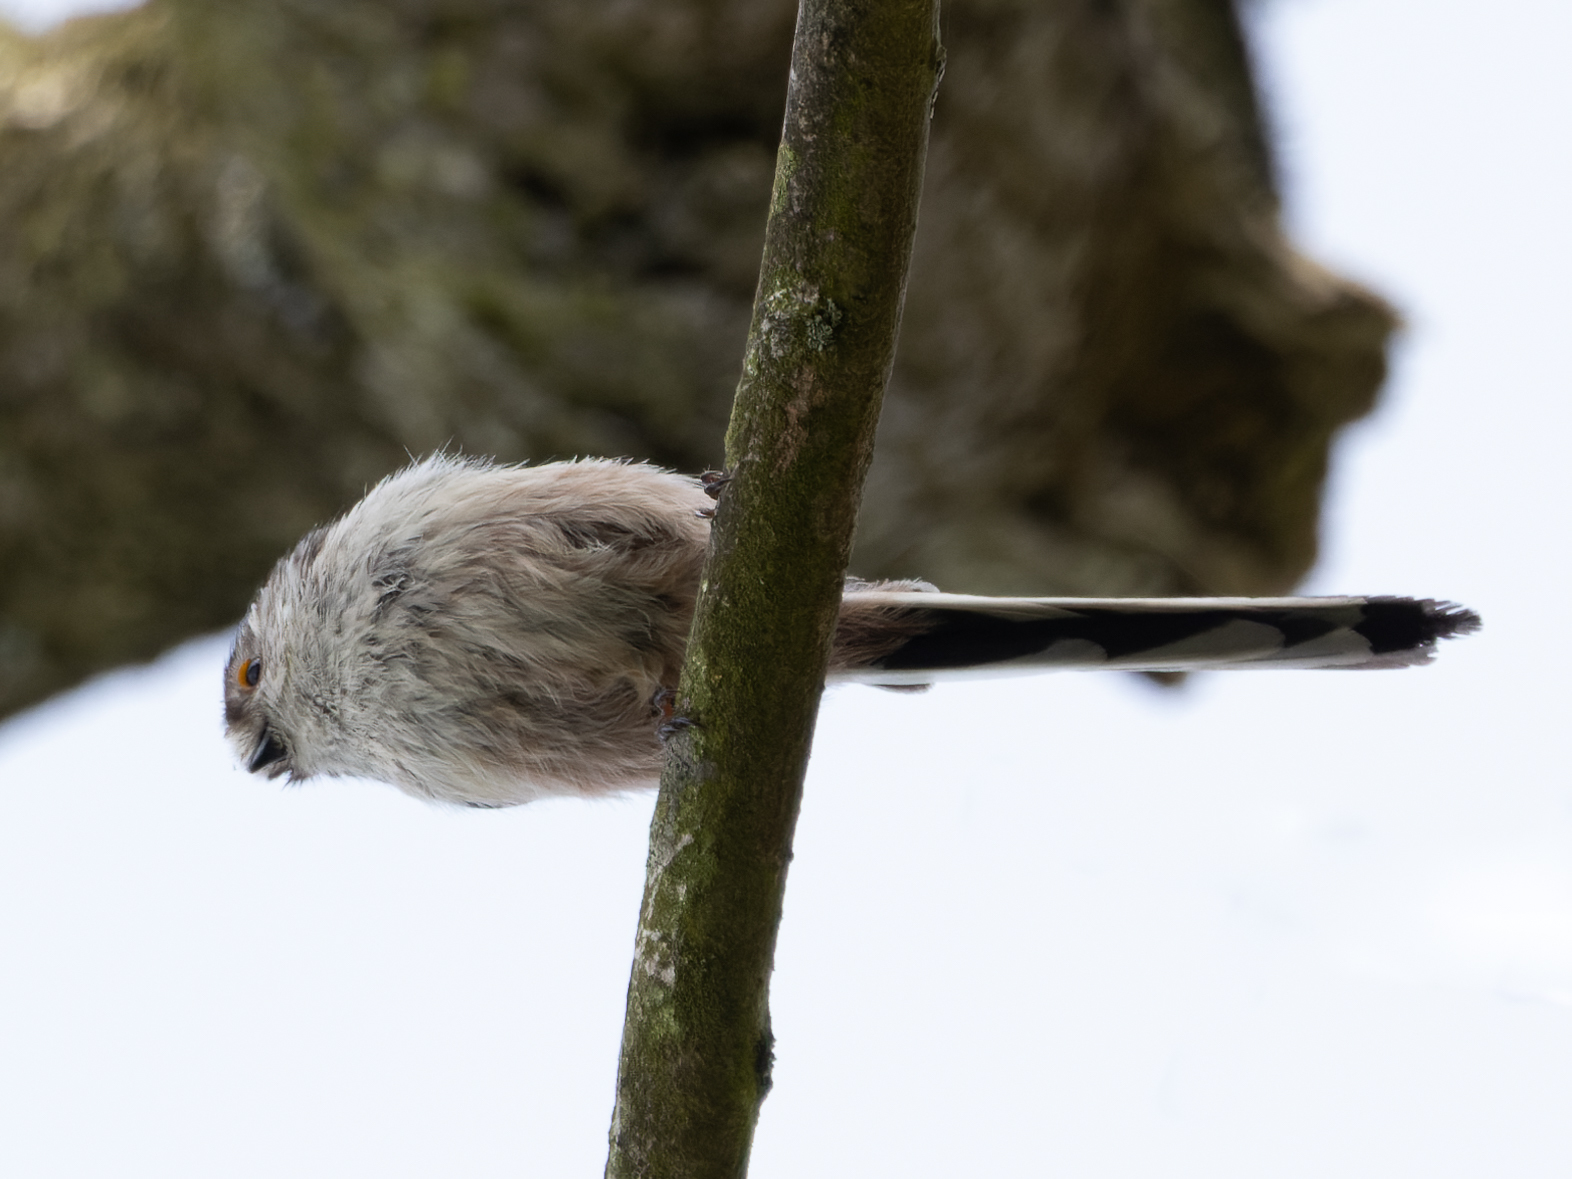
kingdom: Animalia
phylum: Chordata
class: Aves
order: Passeriformes
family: Aegithalidae
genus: Aegithalos
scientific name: Aegithalos caudatus
